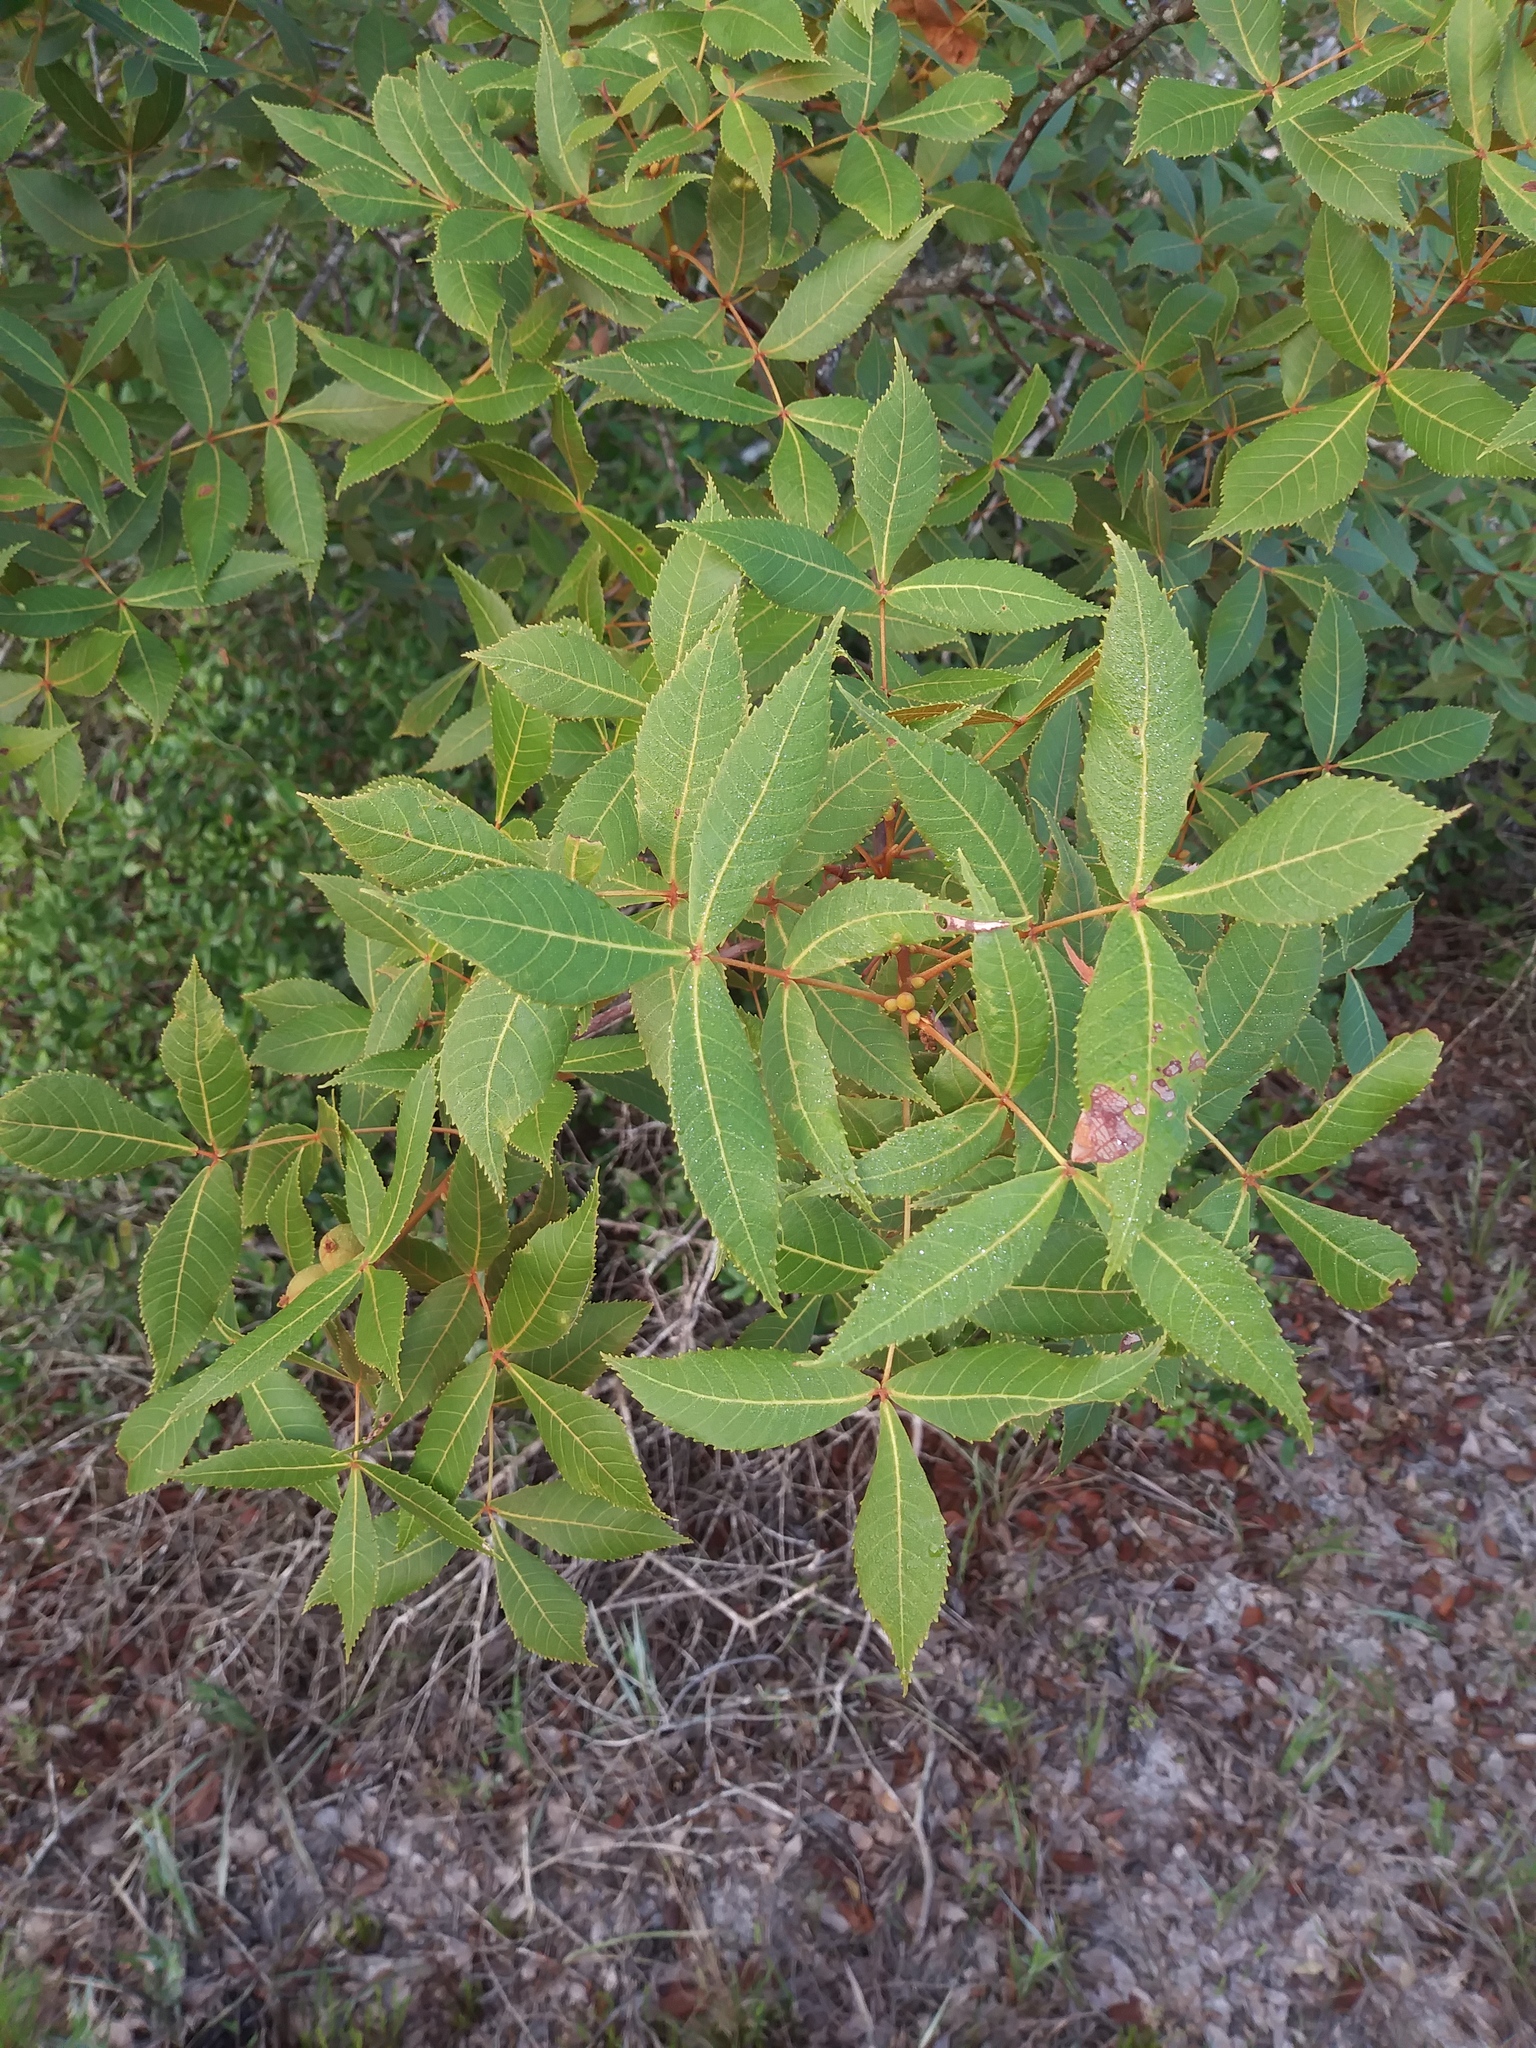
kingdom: Plantae
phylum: Tracheophyta
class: Magnoliopsida
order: Fagales
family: Juglandaceae
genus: Carya
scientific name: Carya floridana
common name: Scrub hickory
